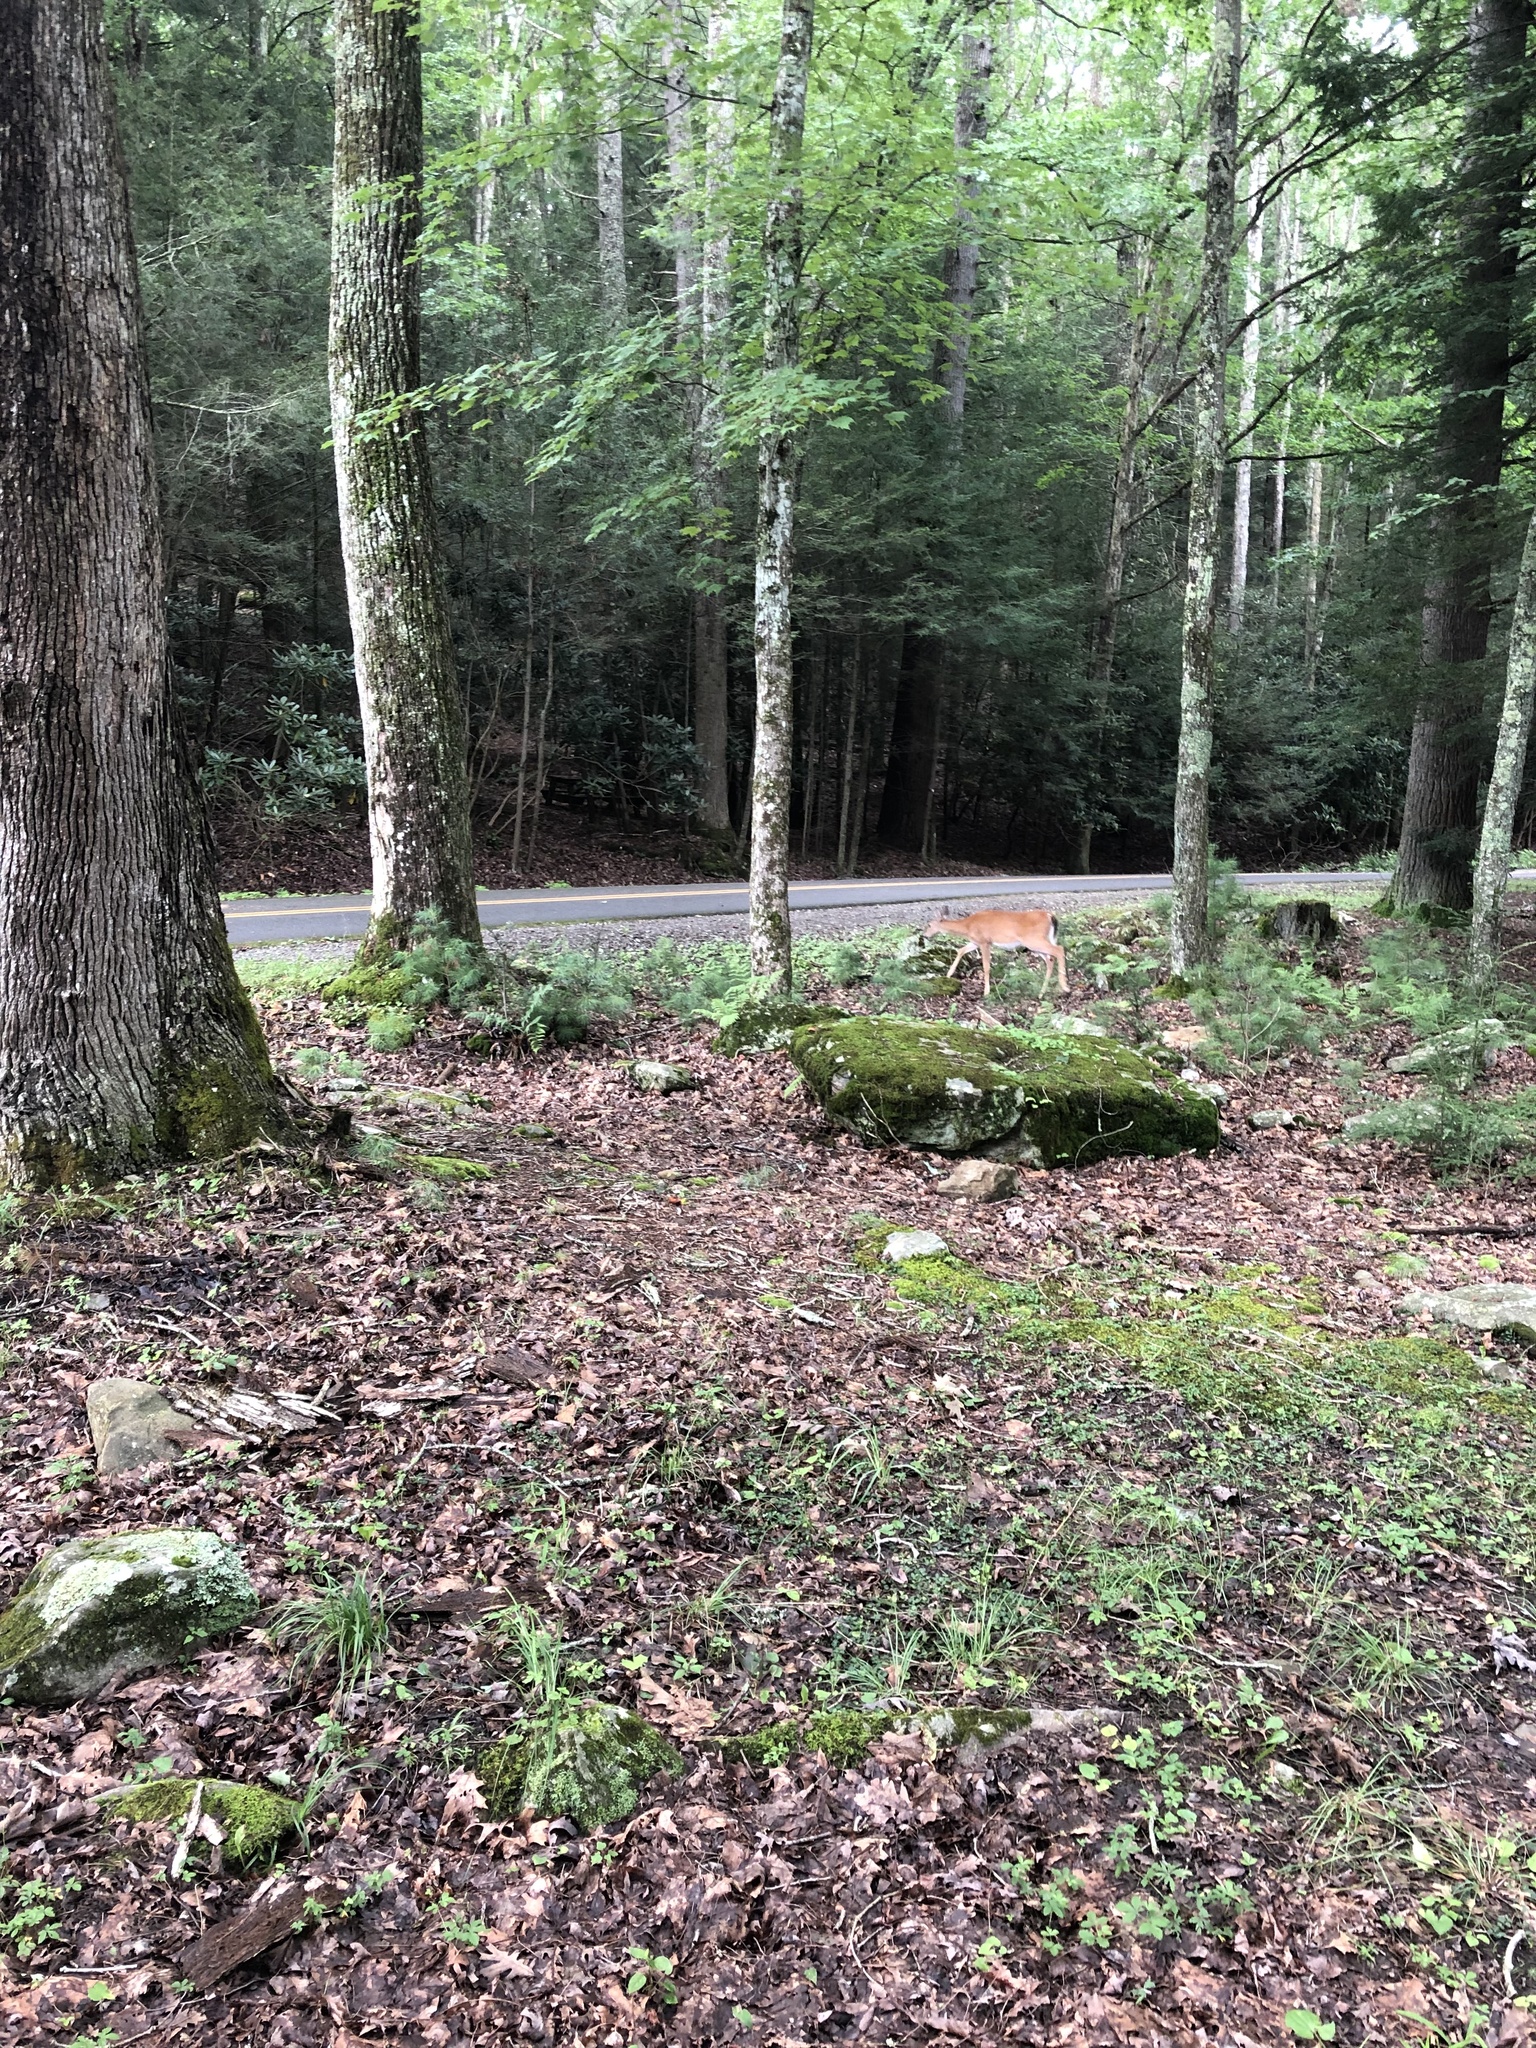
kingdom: Animalia
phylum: Chordata
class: Mammalia
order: Artiodactyla
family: Cervidae
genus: Odocoileus
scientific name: Odocoileus virginianus
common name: White-tailed deer
